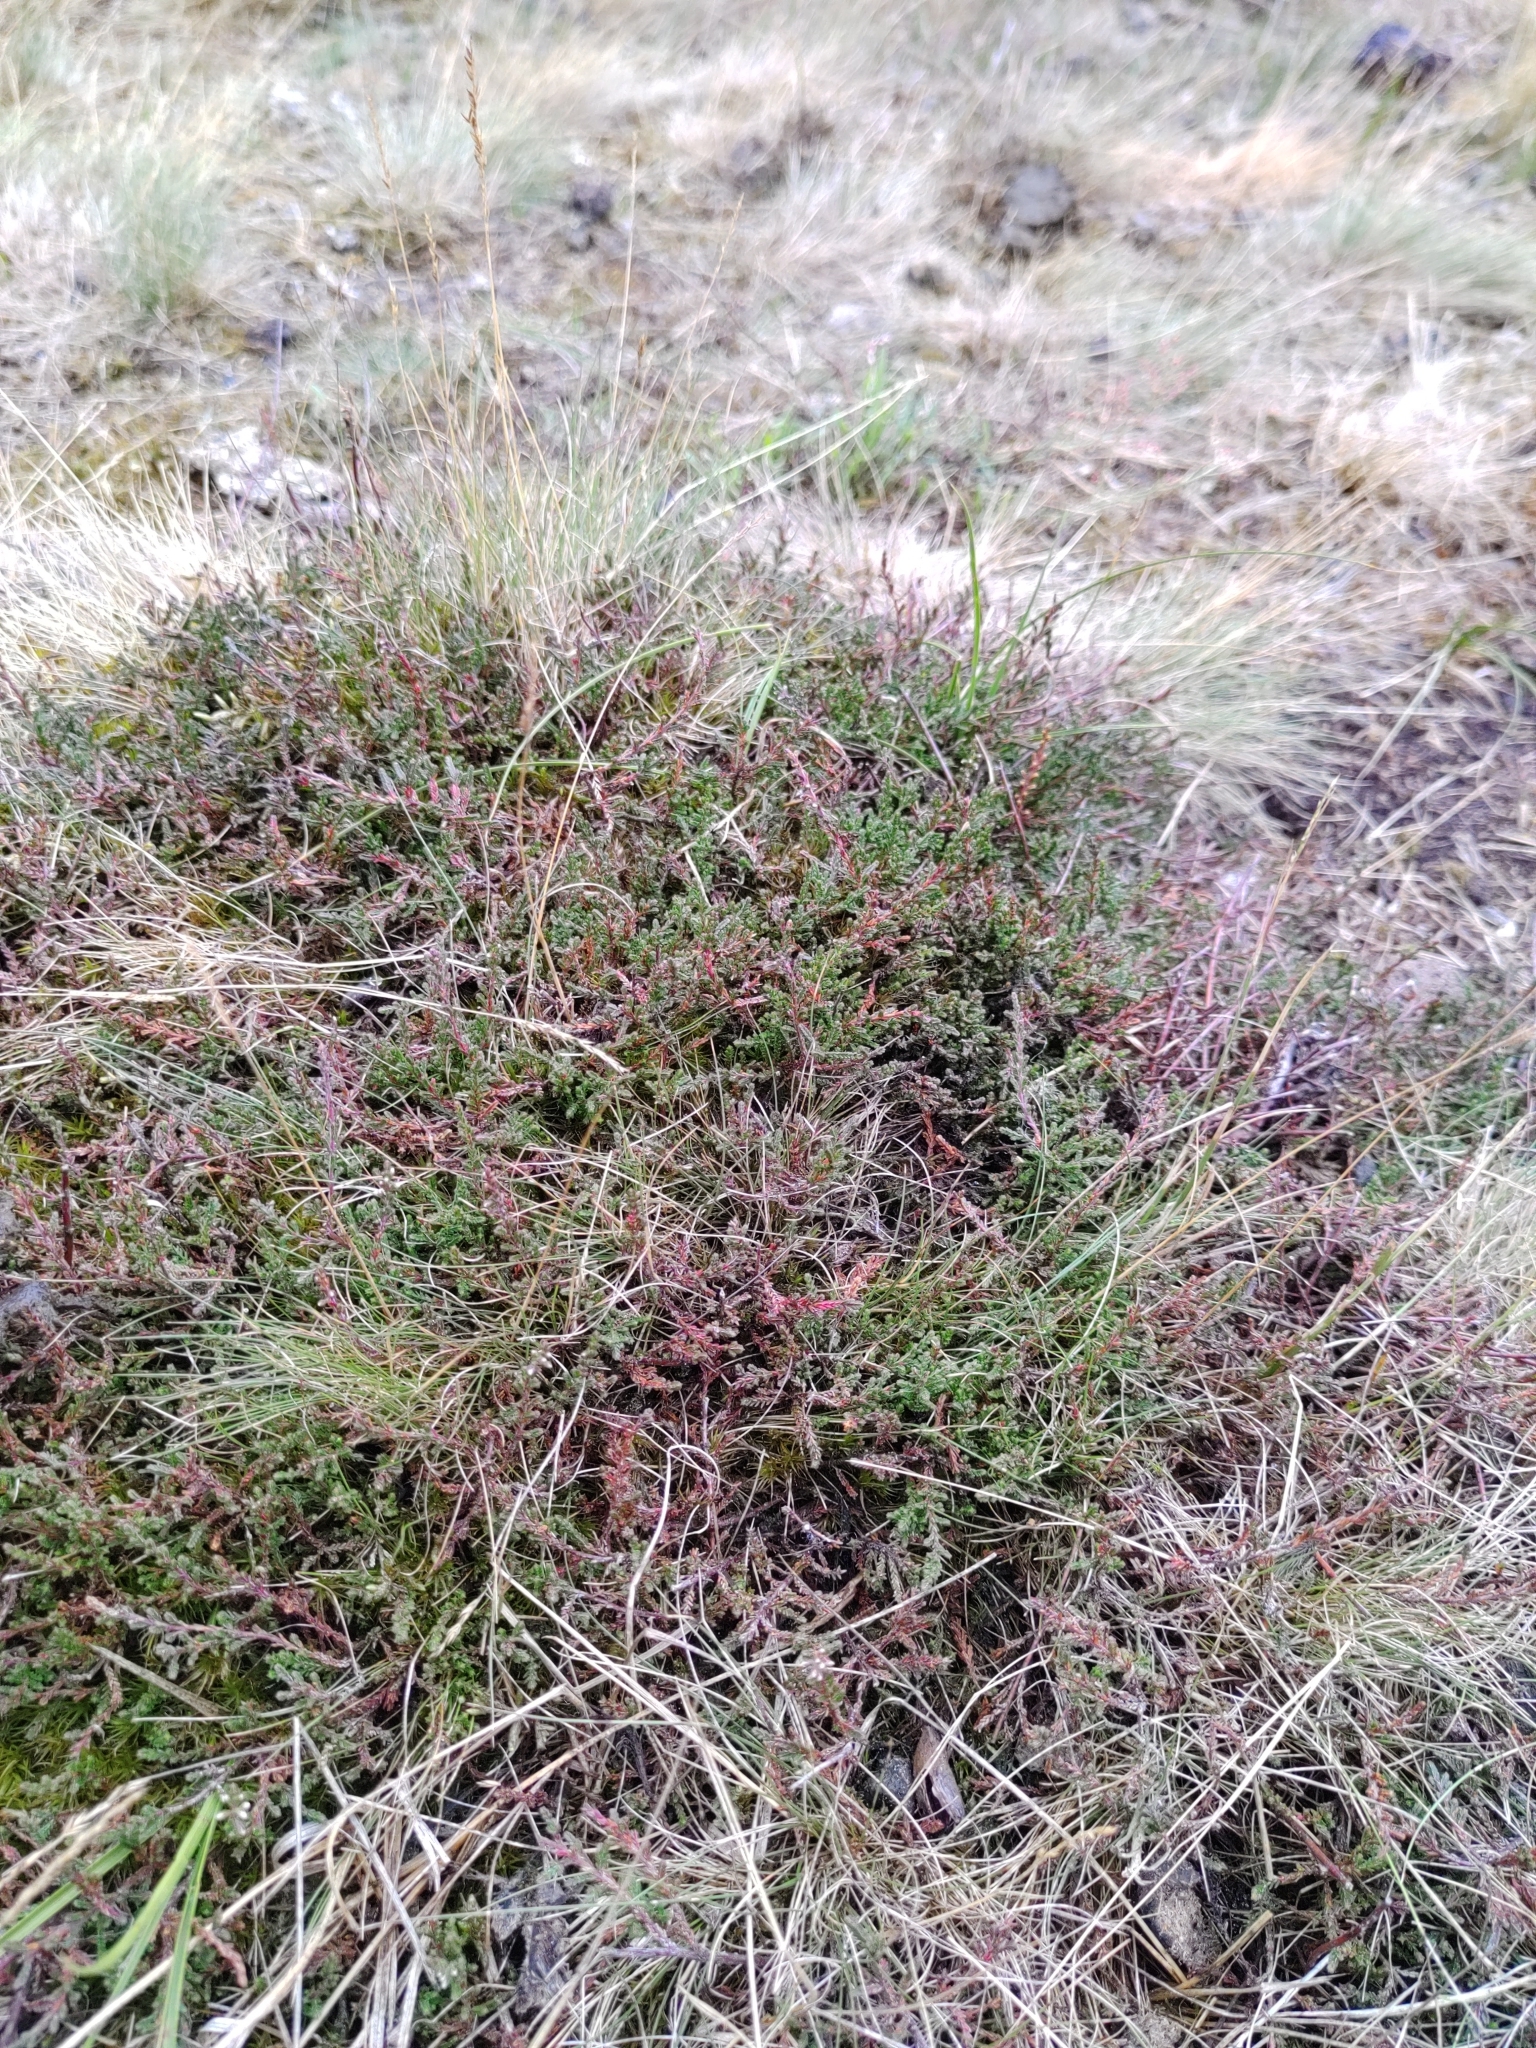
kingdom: Plantae
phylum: Tracheophyta
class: Magnoliopsida
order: Ericales
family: Ericaceae
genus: Calluna
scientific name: Calluna vulgaris
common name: Heather
